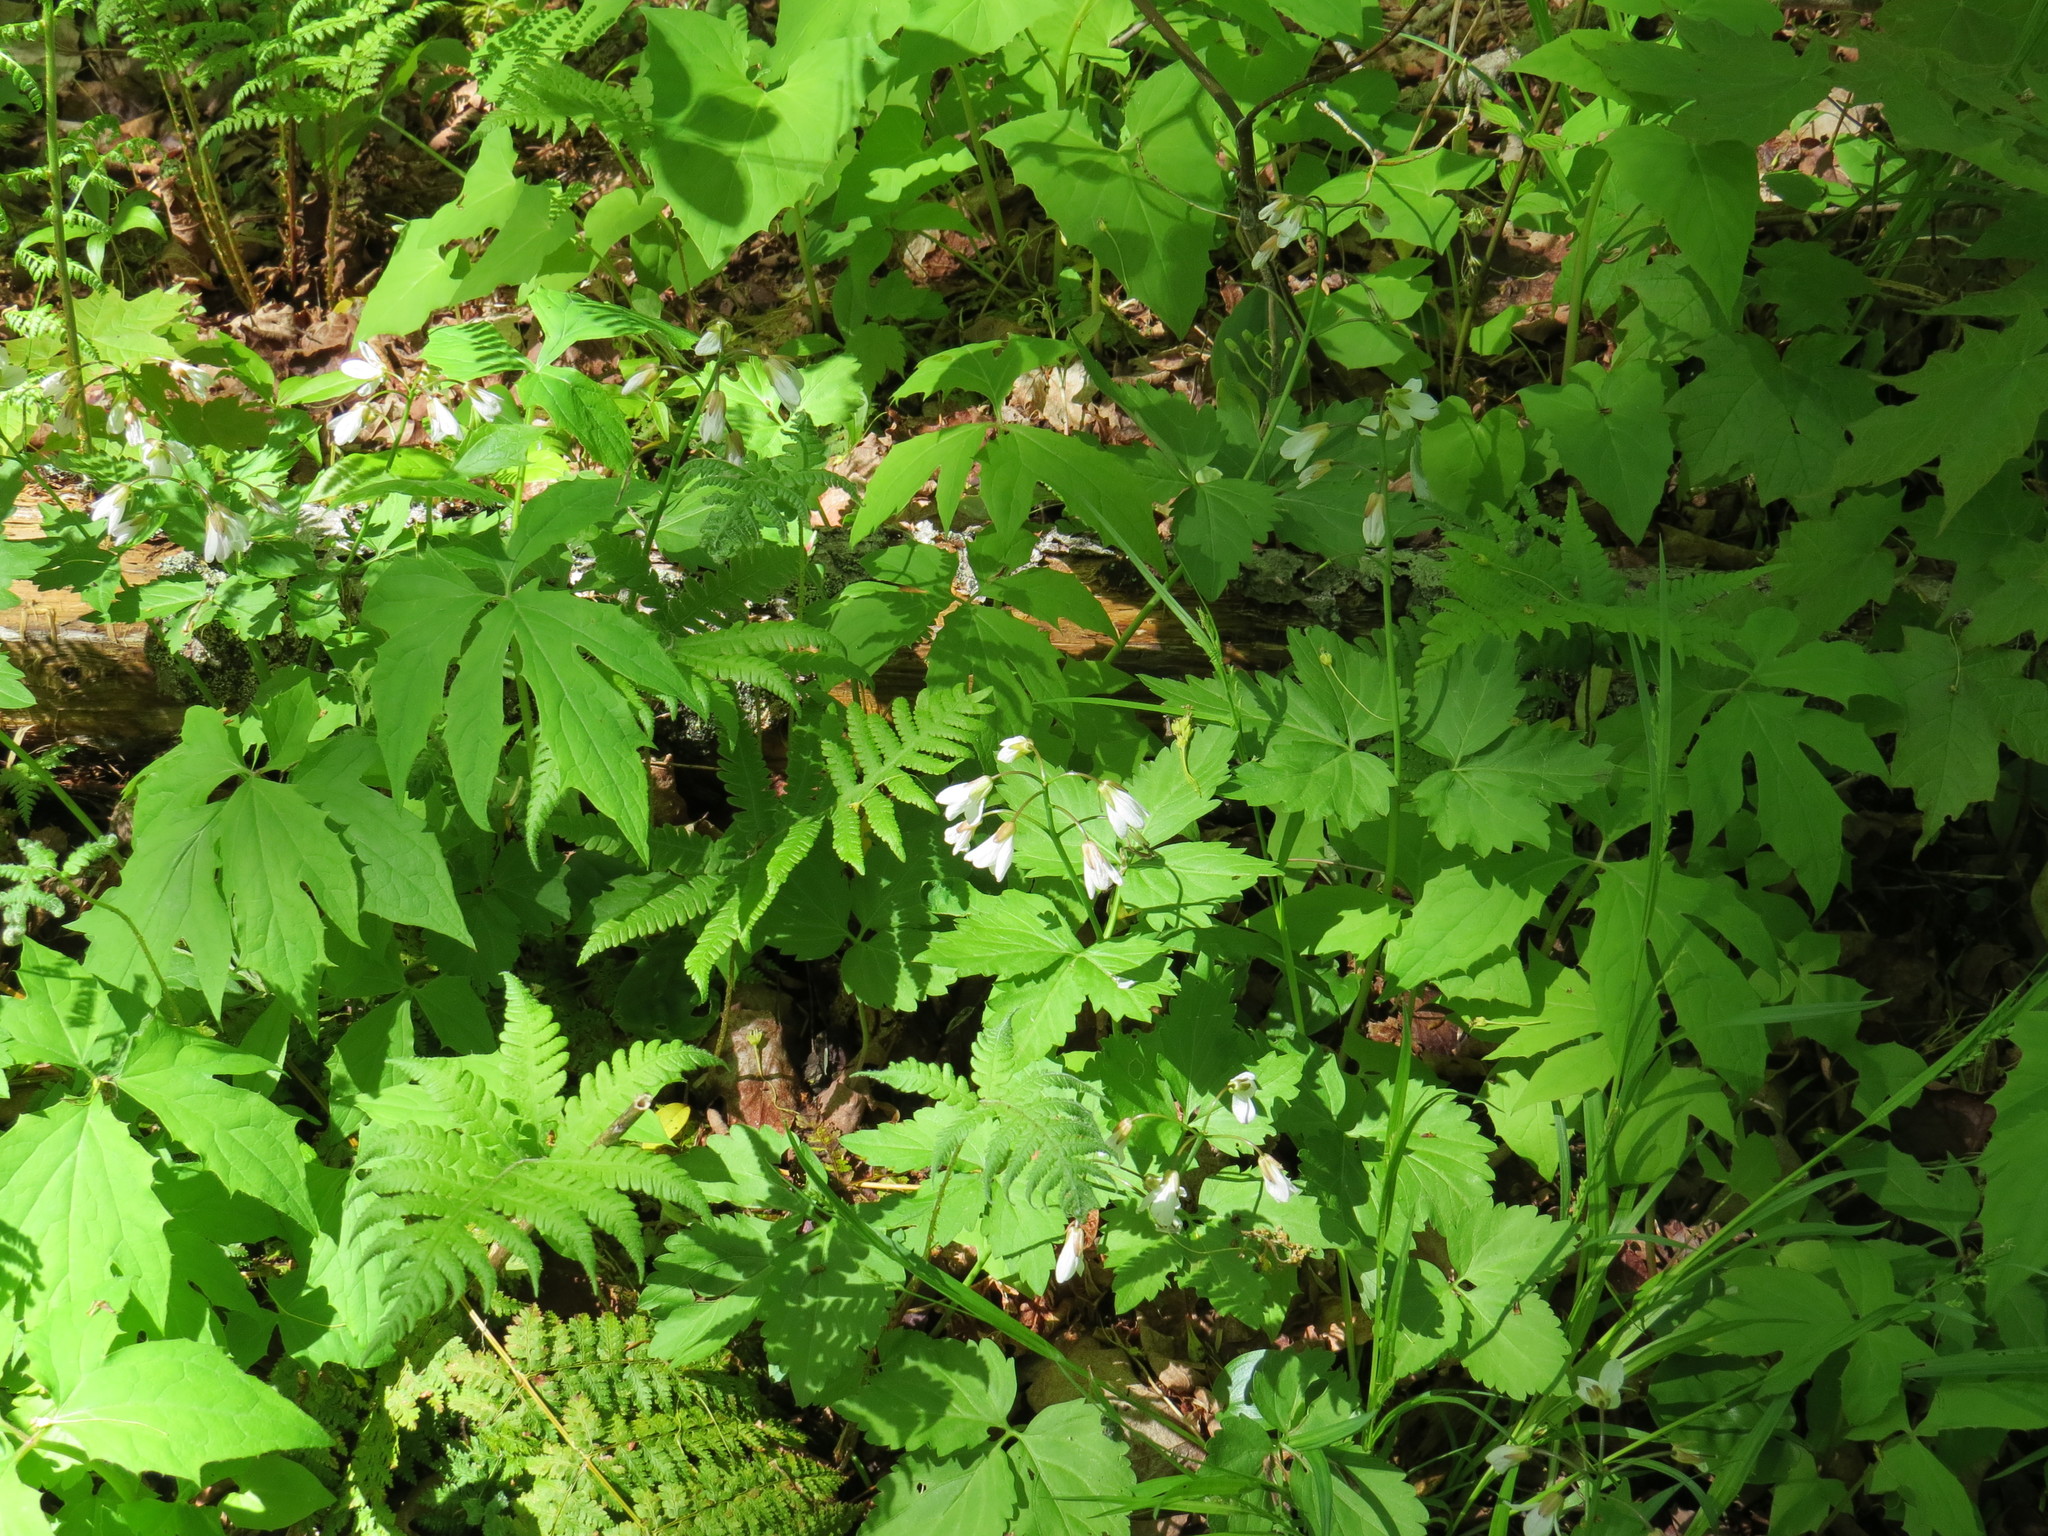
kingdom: Plantae
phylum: Tracheophyta
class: Magnoliopsida
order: Brassicales
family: Brassicaceae
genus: Cardamine
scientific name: Cardamine diphylla
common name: Broad-leaved toothwort
